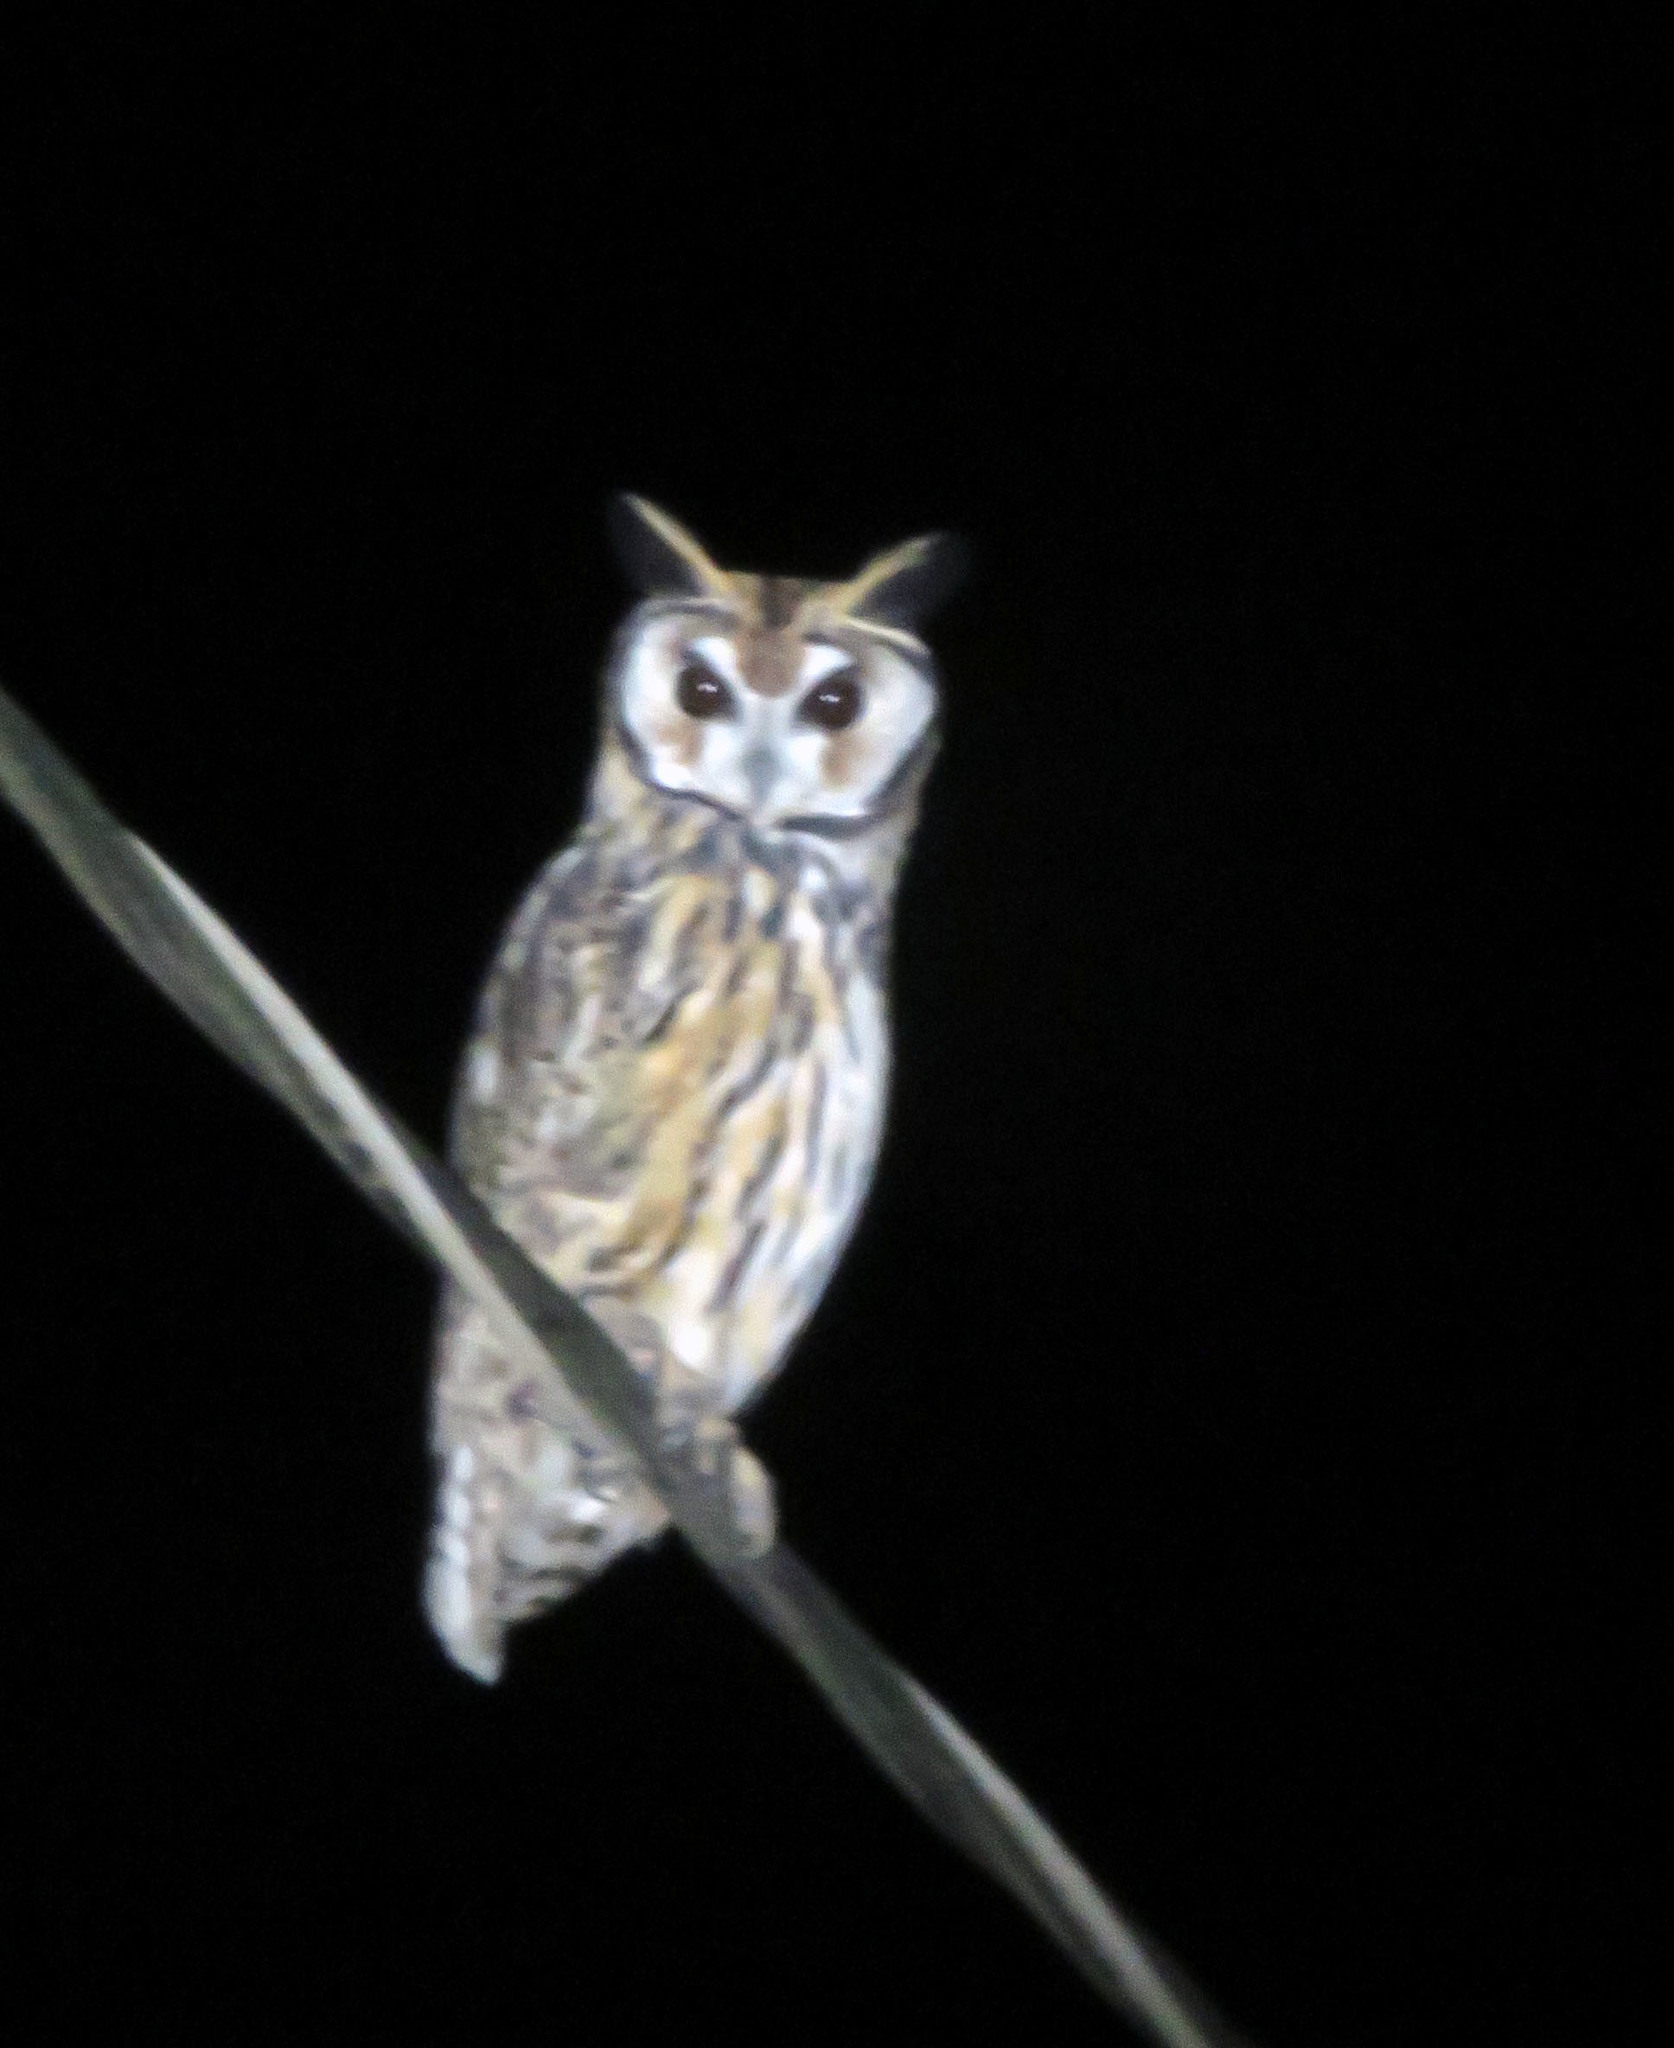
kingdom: Animalia
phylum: Chordata
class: Aves
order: Strigiformes
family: Strigidae
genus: Pseudoscops
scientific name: Pseudoscops clamator
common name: Striped owl
